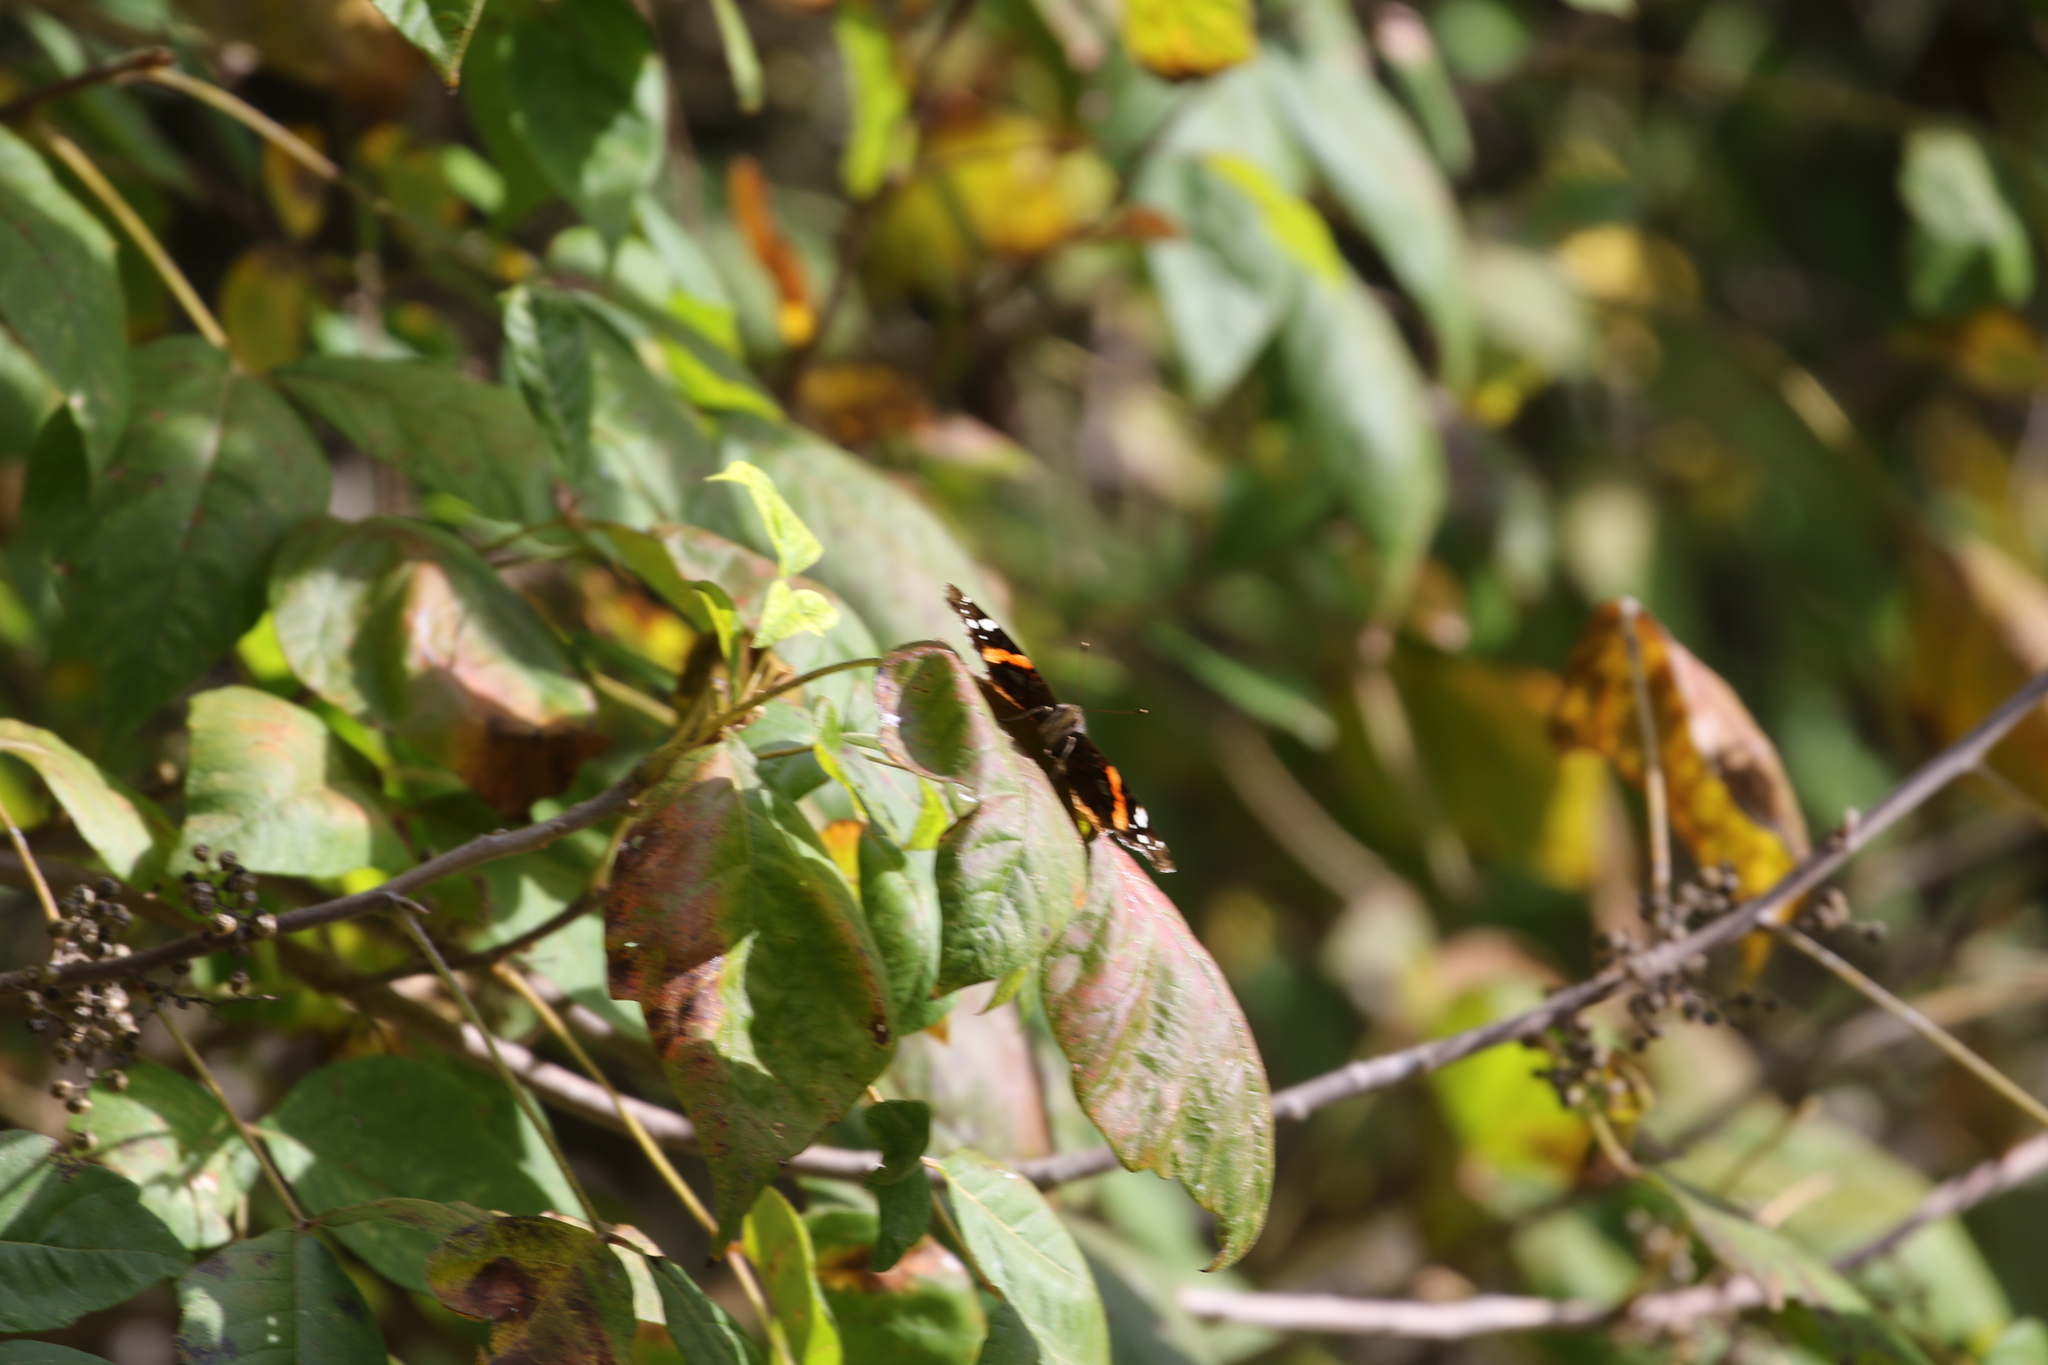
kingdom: Animalia
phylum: Arthropoda
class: Insecta
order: Lepidoptera
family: Nymphalidae
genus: Vanessa
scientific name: Vanessa atalanta
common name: Red admiral
